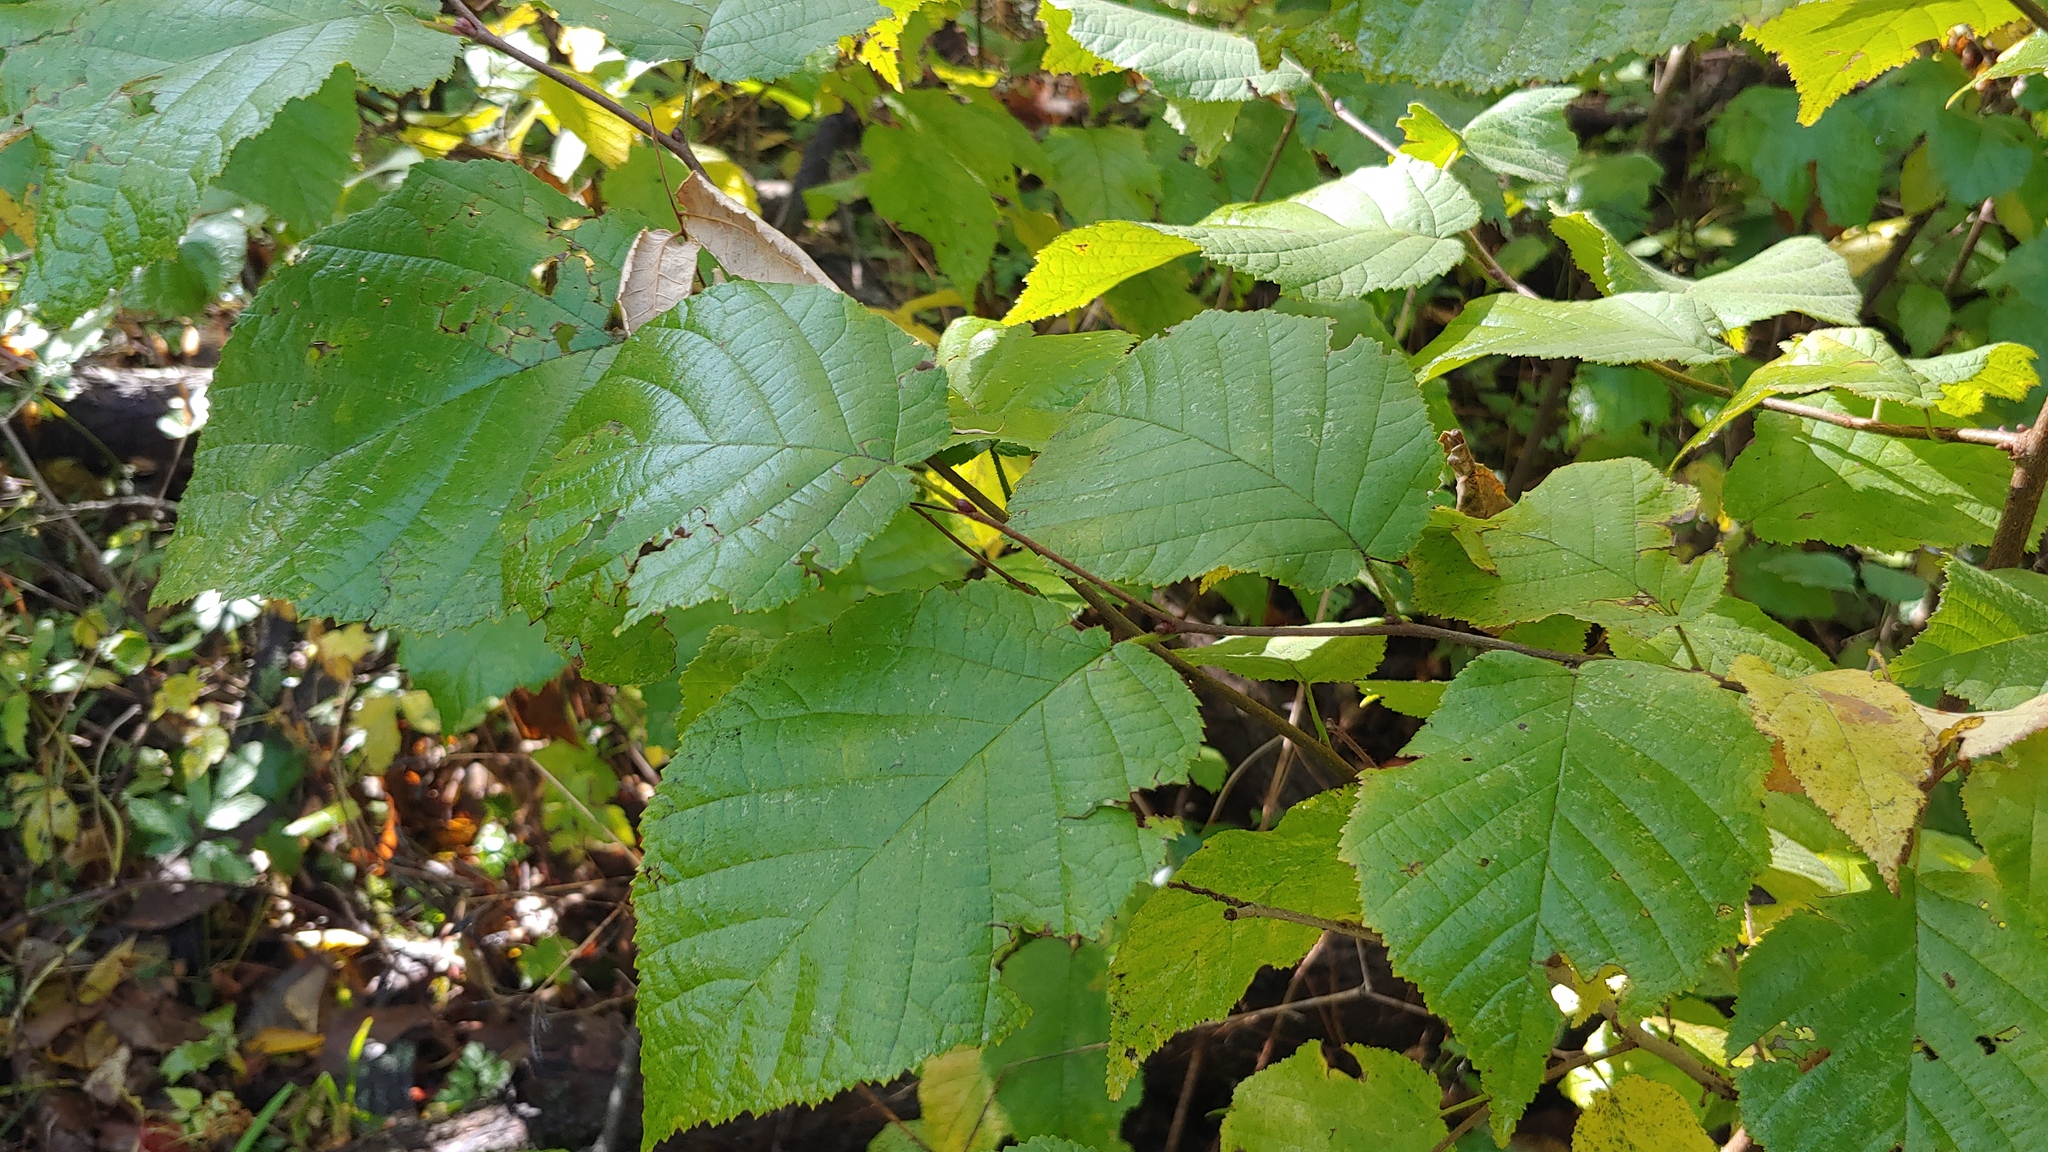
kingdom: Plantae
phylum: Tracheophyta
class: Magnoliopsida
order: Fagales
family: Betulaceae
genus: Corylus
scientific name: Corylus americana
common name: American hazel
